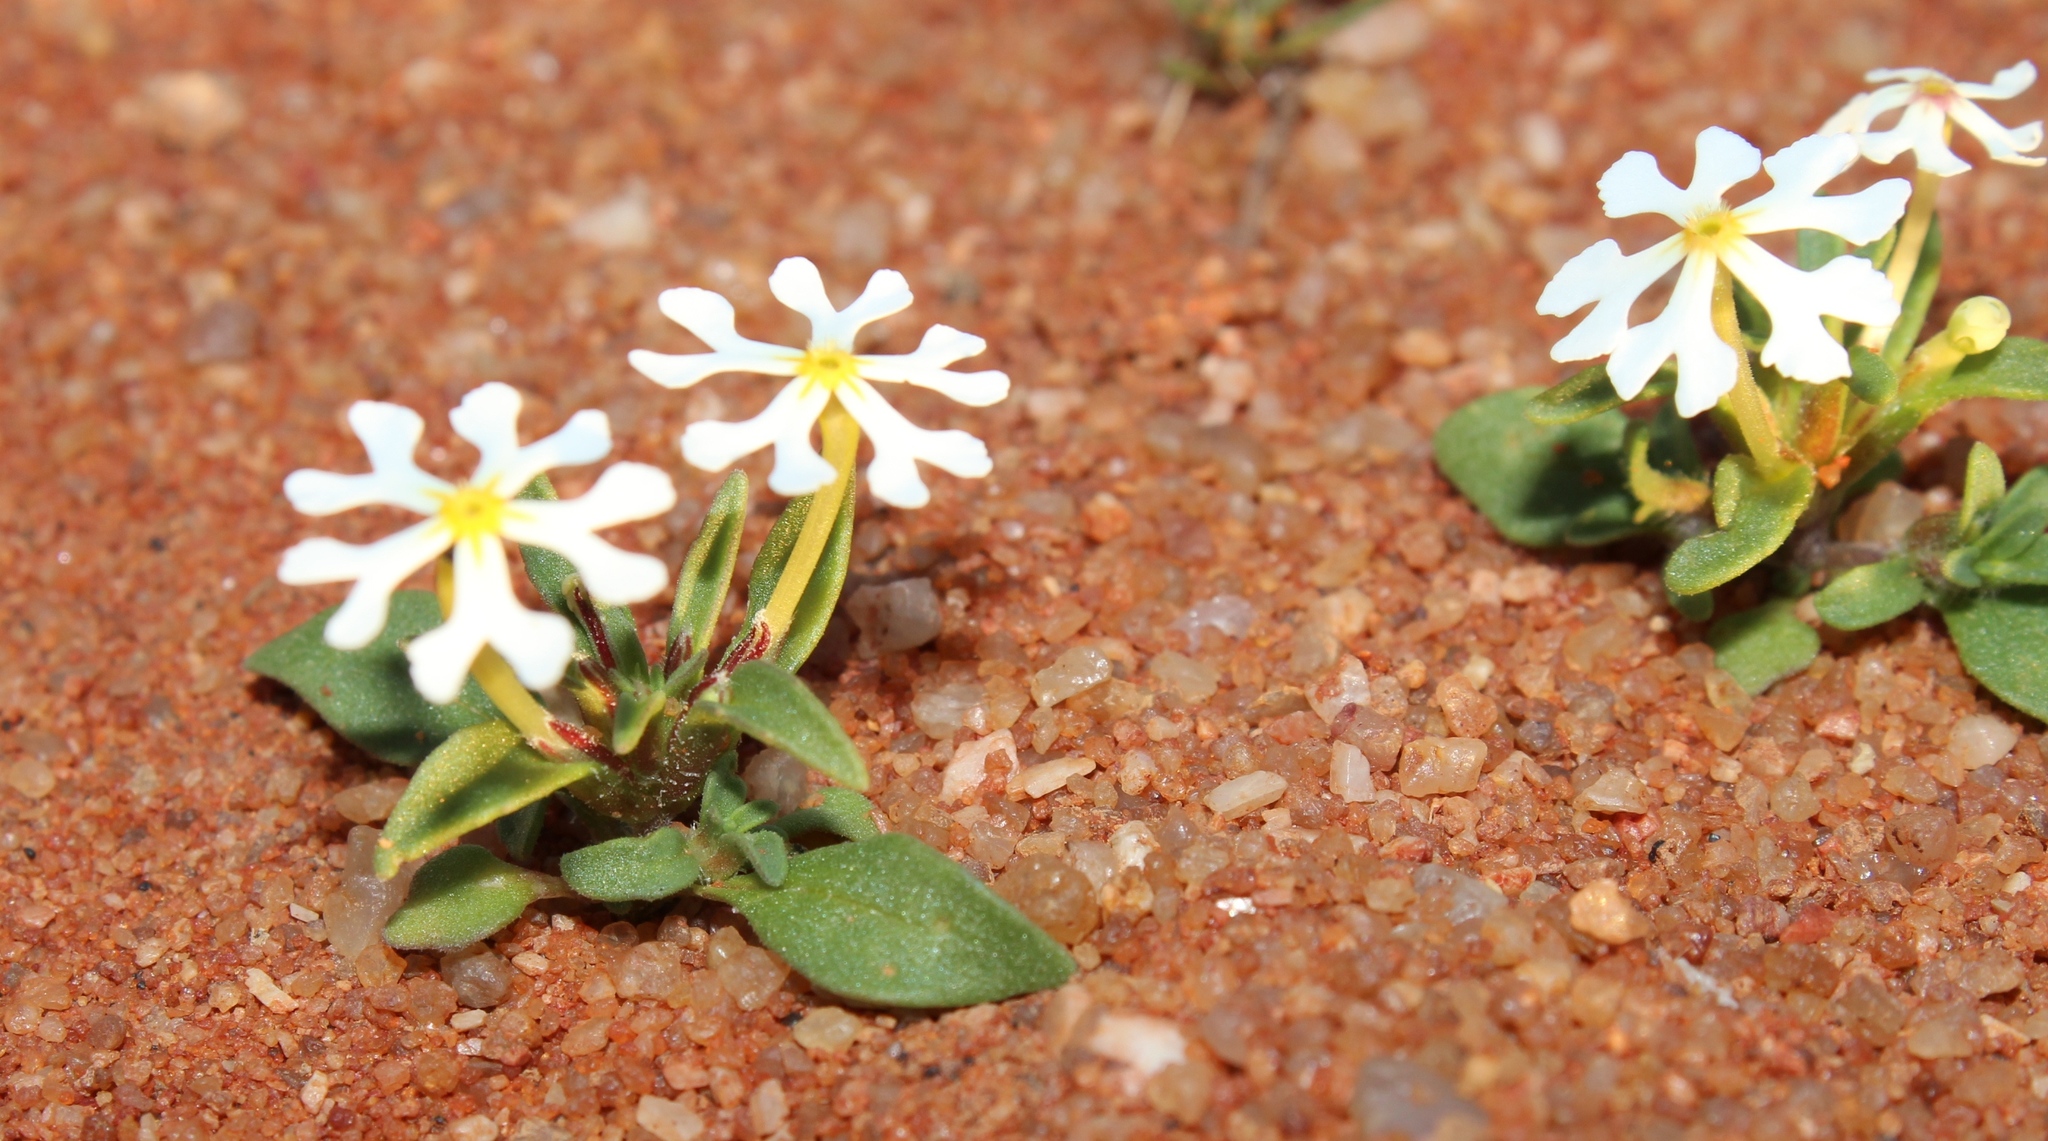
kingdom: Plantae
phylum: Tracheophyta
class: Magnoliopsida
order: Lamiales
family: Scrophulariaceae
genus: Zaluzianskya
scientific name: Zaluzianskya affinis
